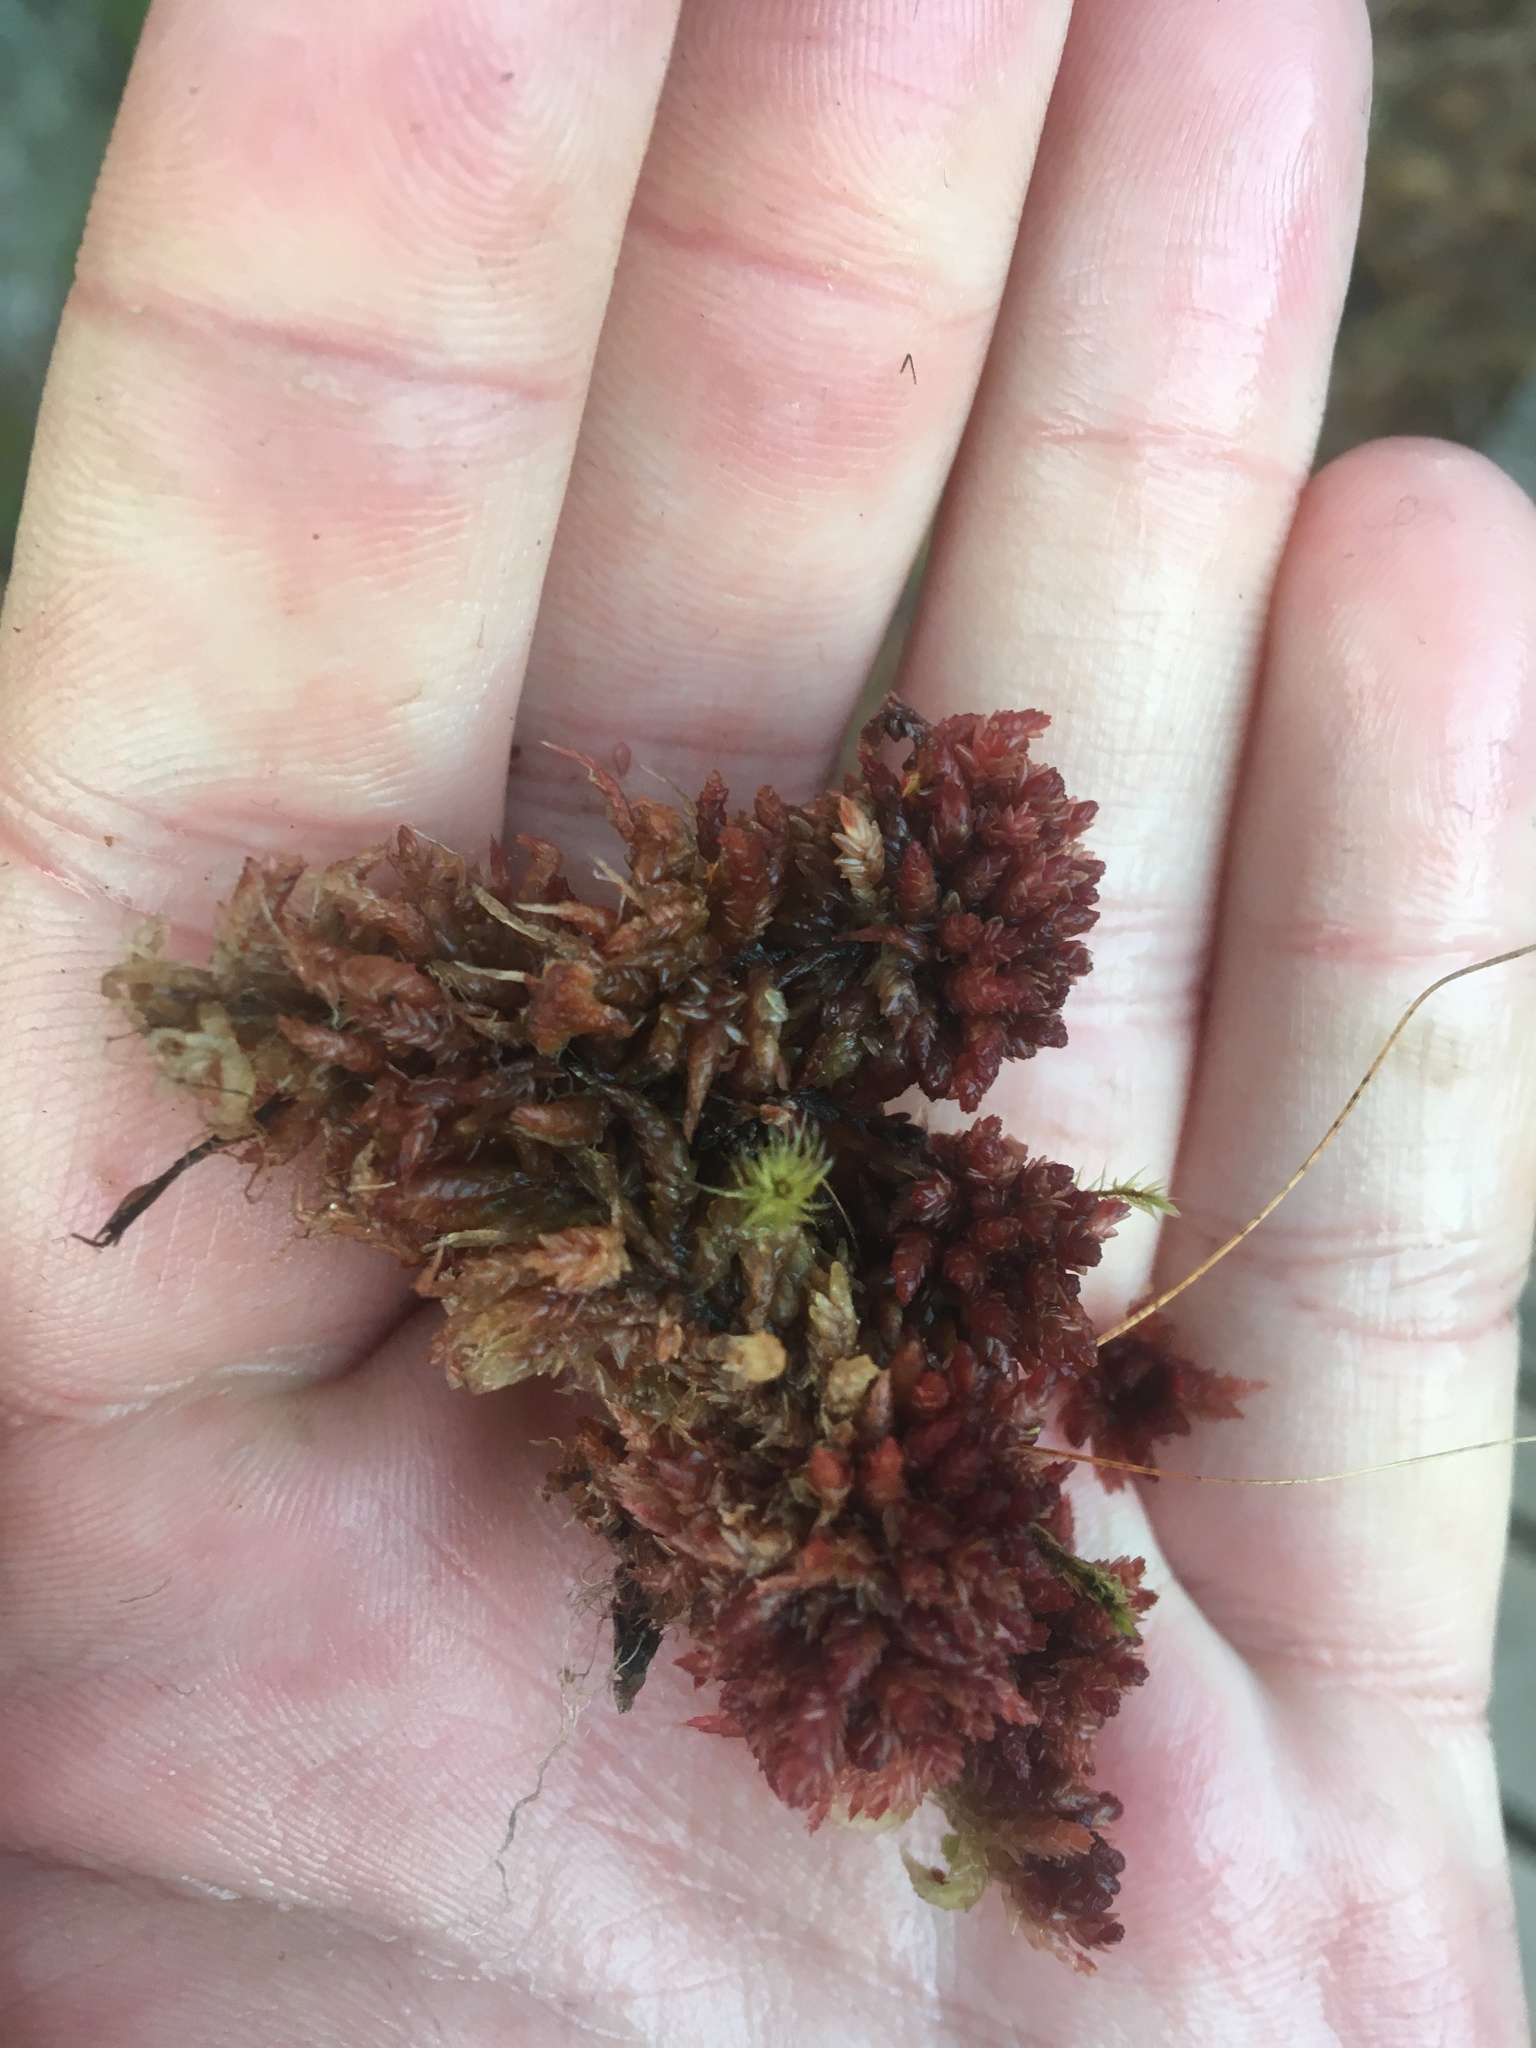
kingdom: Plantae
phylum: Bryophyta
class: Sphagnopsida
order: Sphagnales
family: Sphagnaceae
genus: Sphagnum
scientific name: Sphagnum medium
